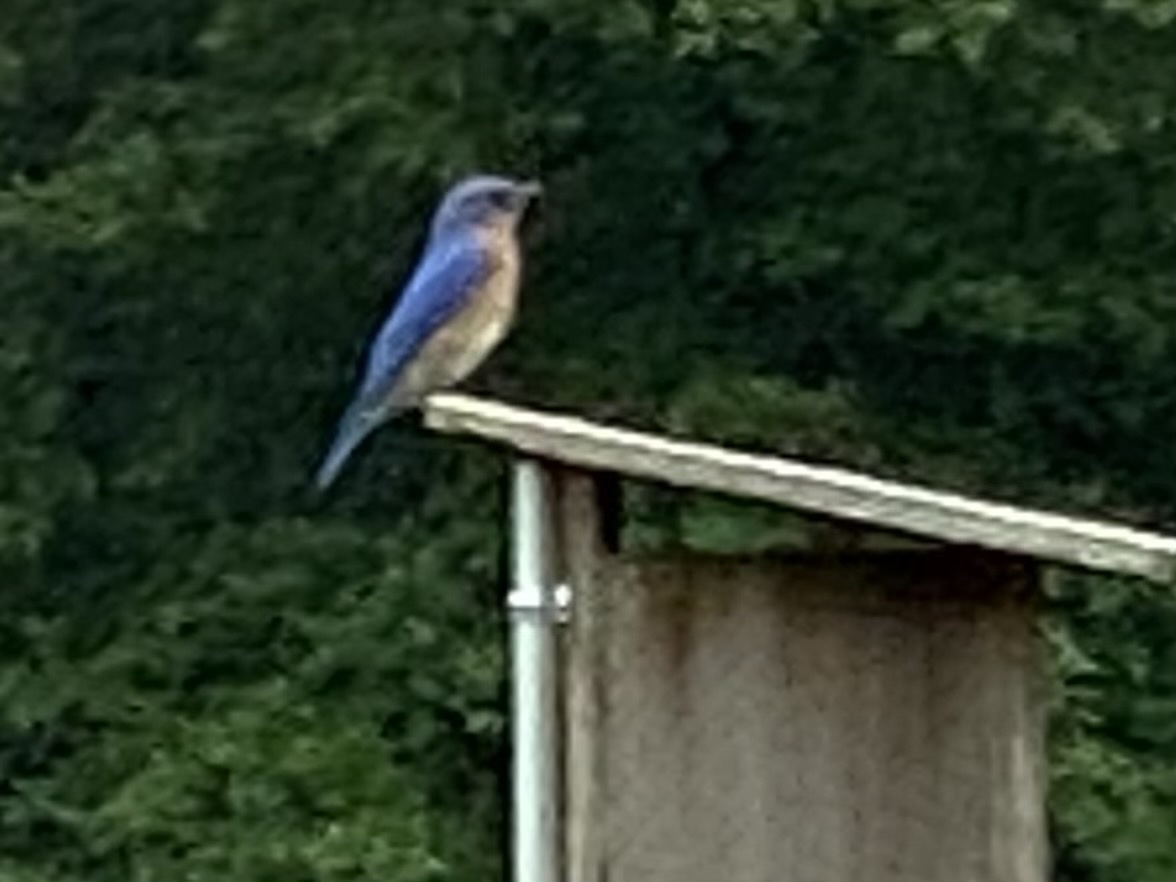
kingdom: Animalia
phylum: Chordata
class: Aves
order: Passeriformes
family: Turdidae
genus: Sialia
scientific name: Sialia sialis
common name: Eastern bluebird
